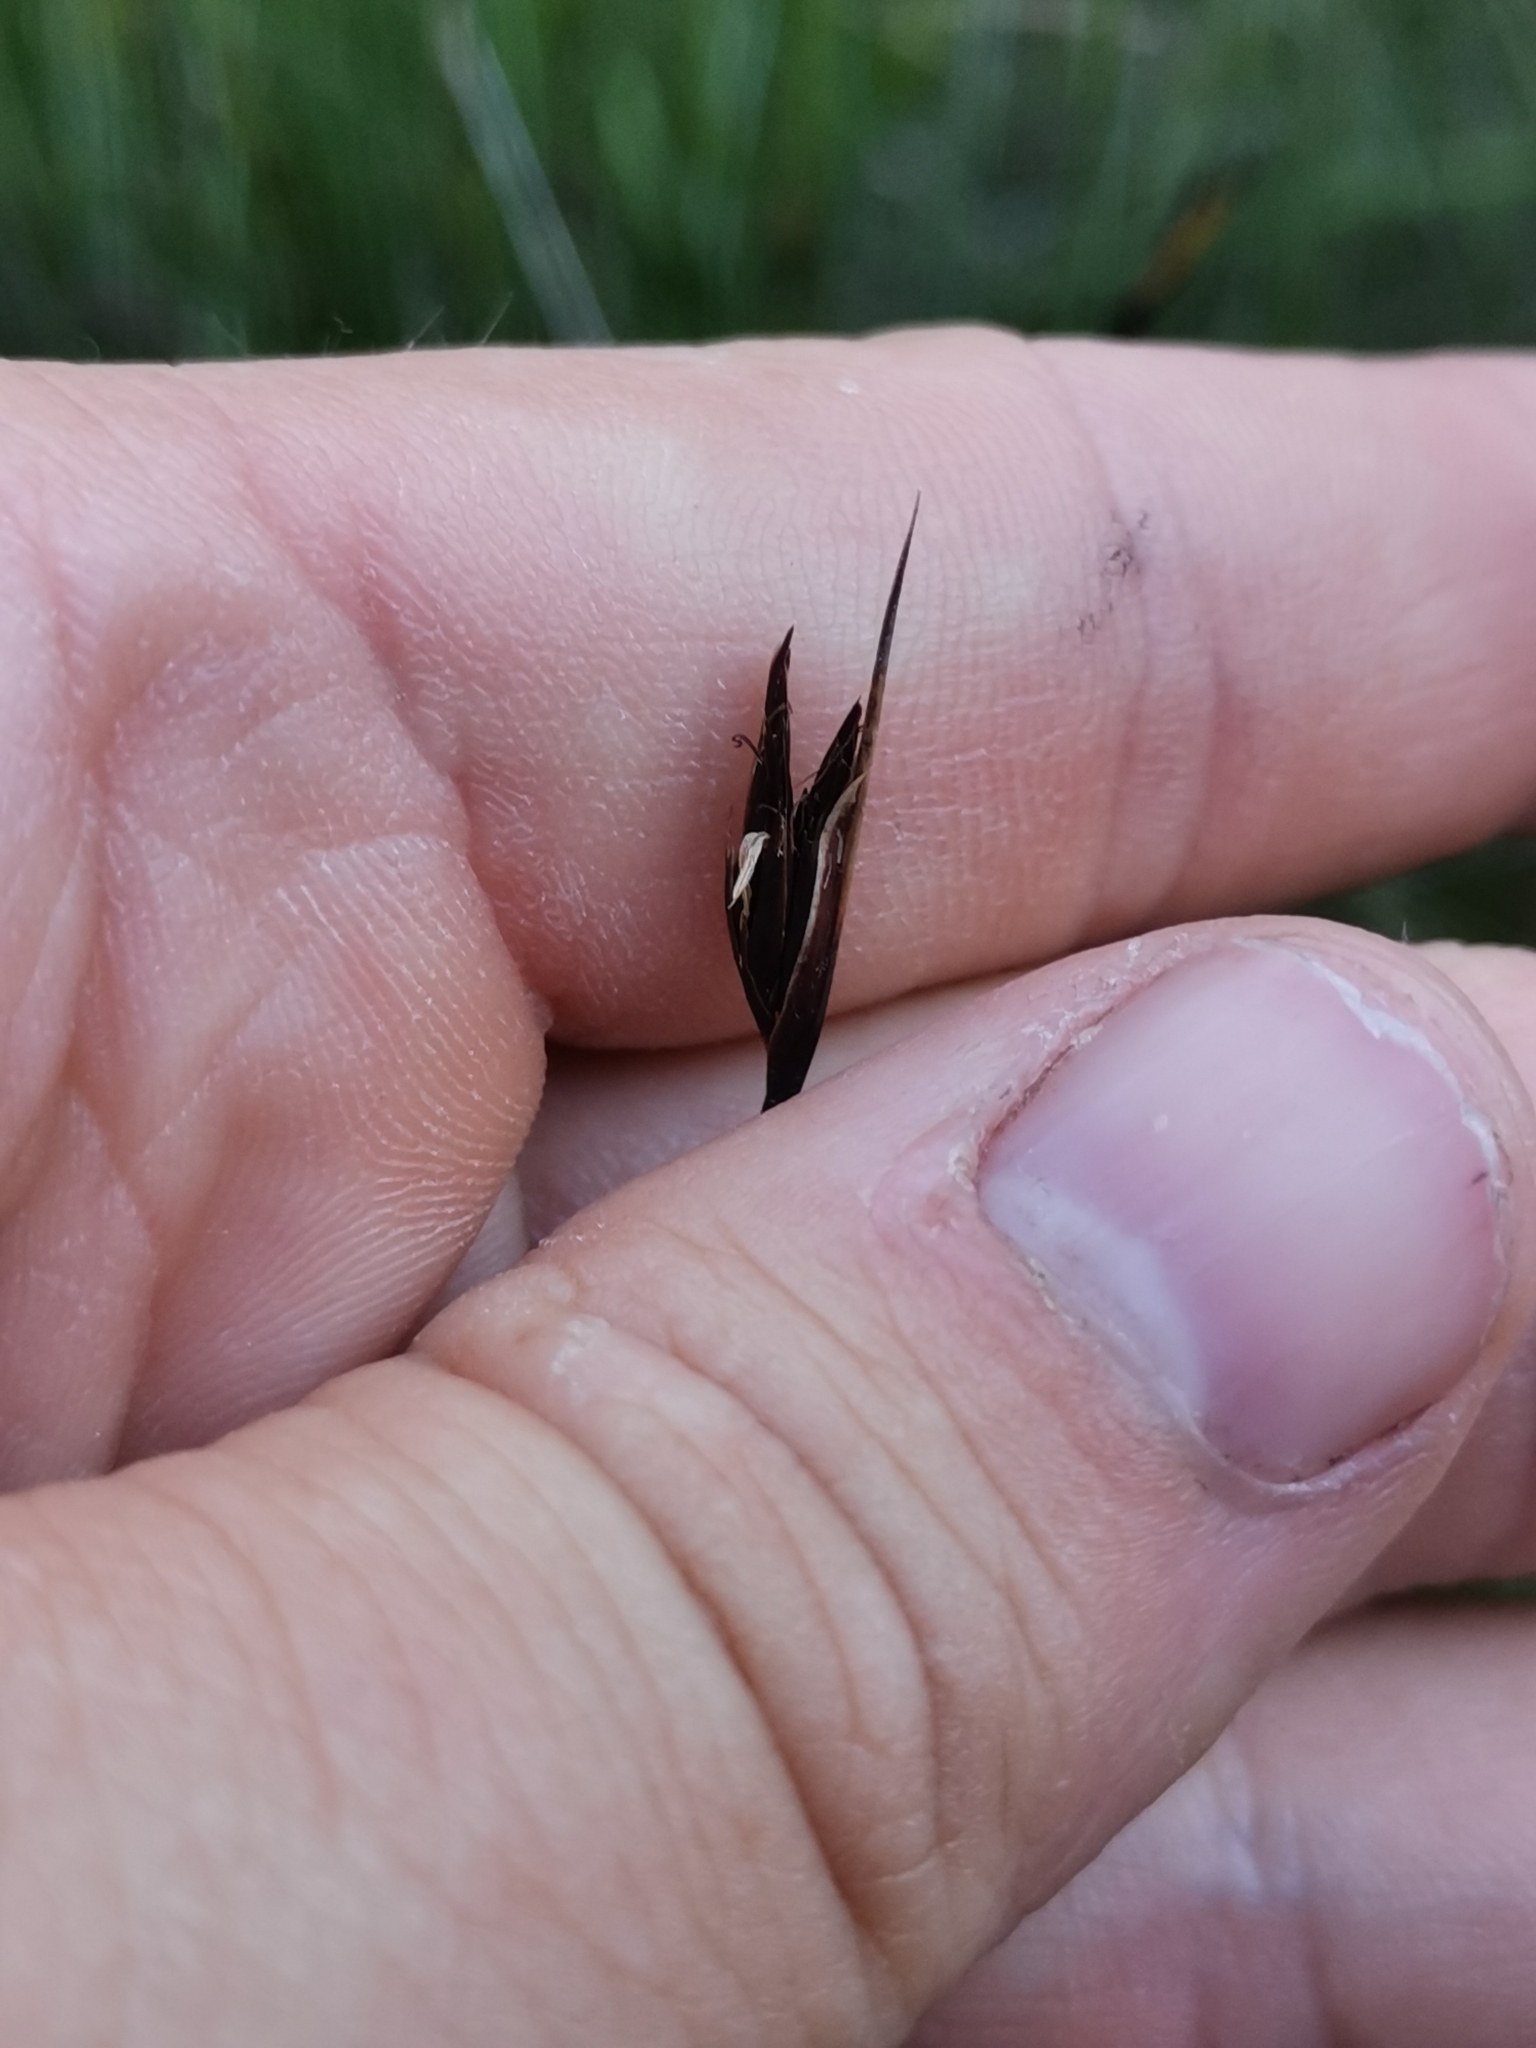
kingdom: Plantae
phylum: Tracheophyta
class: Liliopsida
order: Poales
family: Cyperaceae
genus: Schoenus
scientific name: Schoenus ferrugineus
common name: Brown bog-rush
